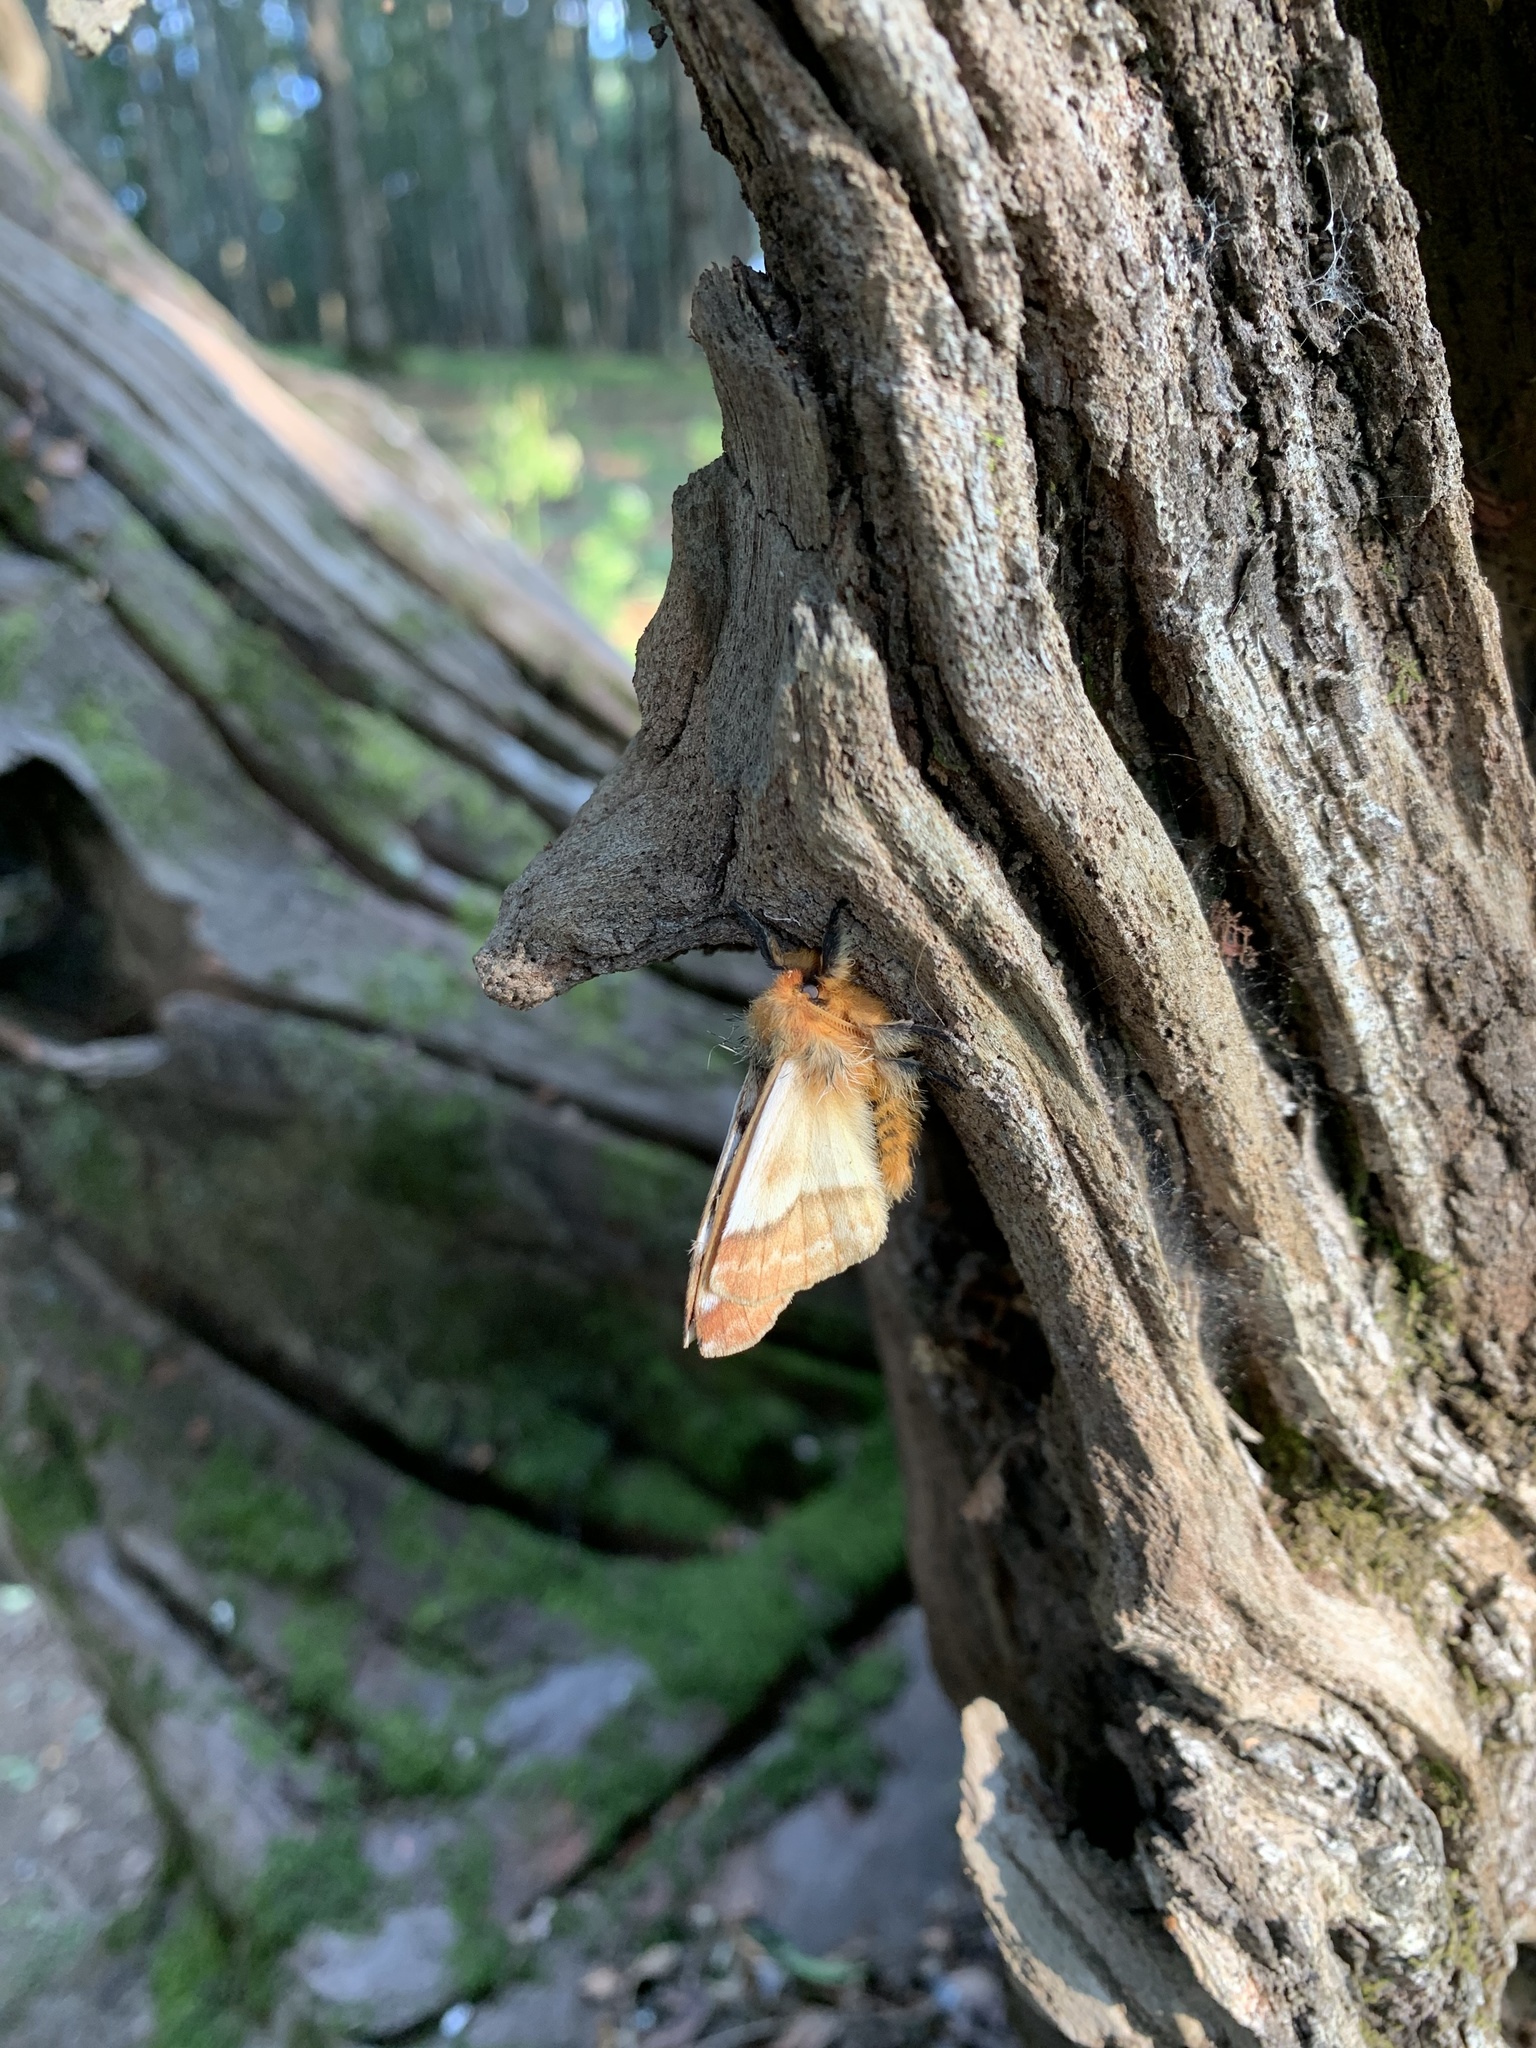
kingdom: Animalia
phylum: Arthropoda
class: Insecta
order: Lepidoptera
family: Saturniidae
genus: Ormiscodes
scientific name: Ormiscodes amphinome
